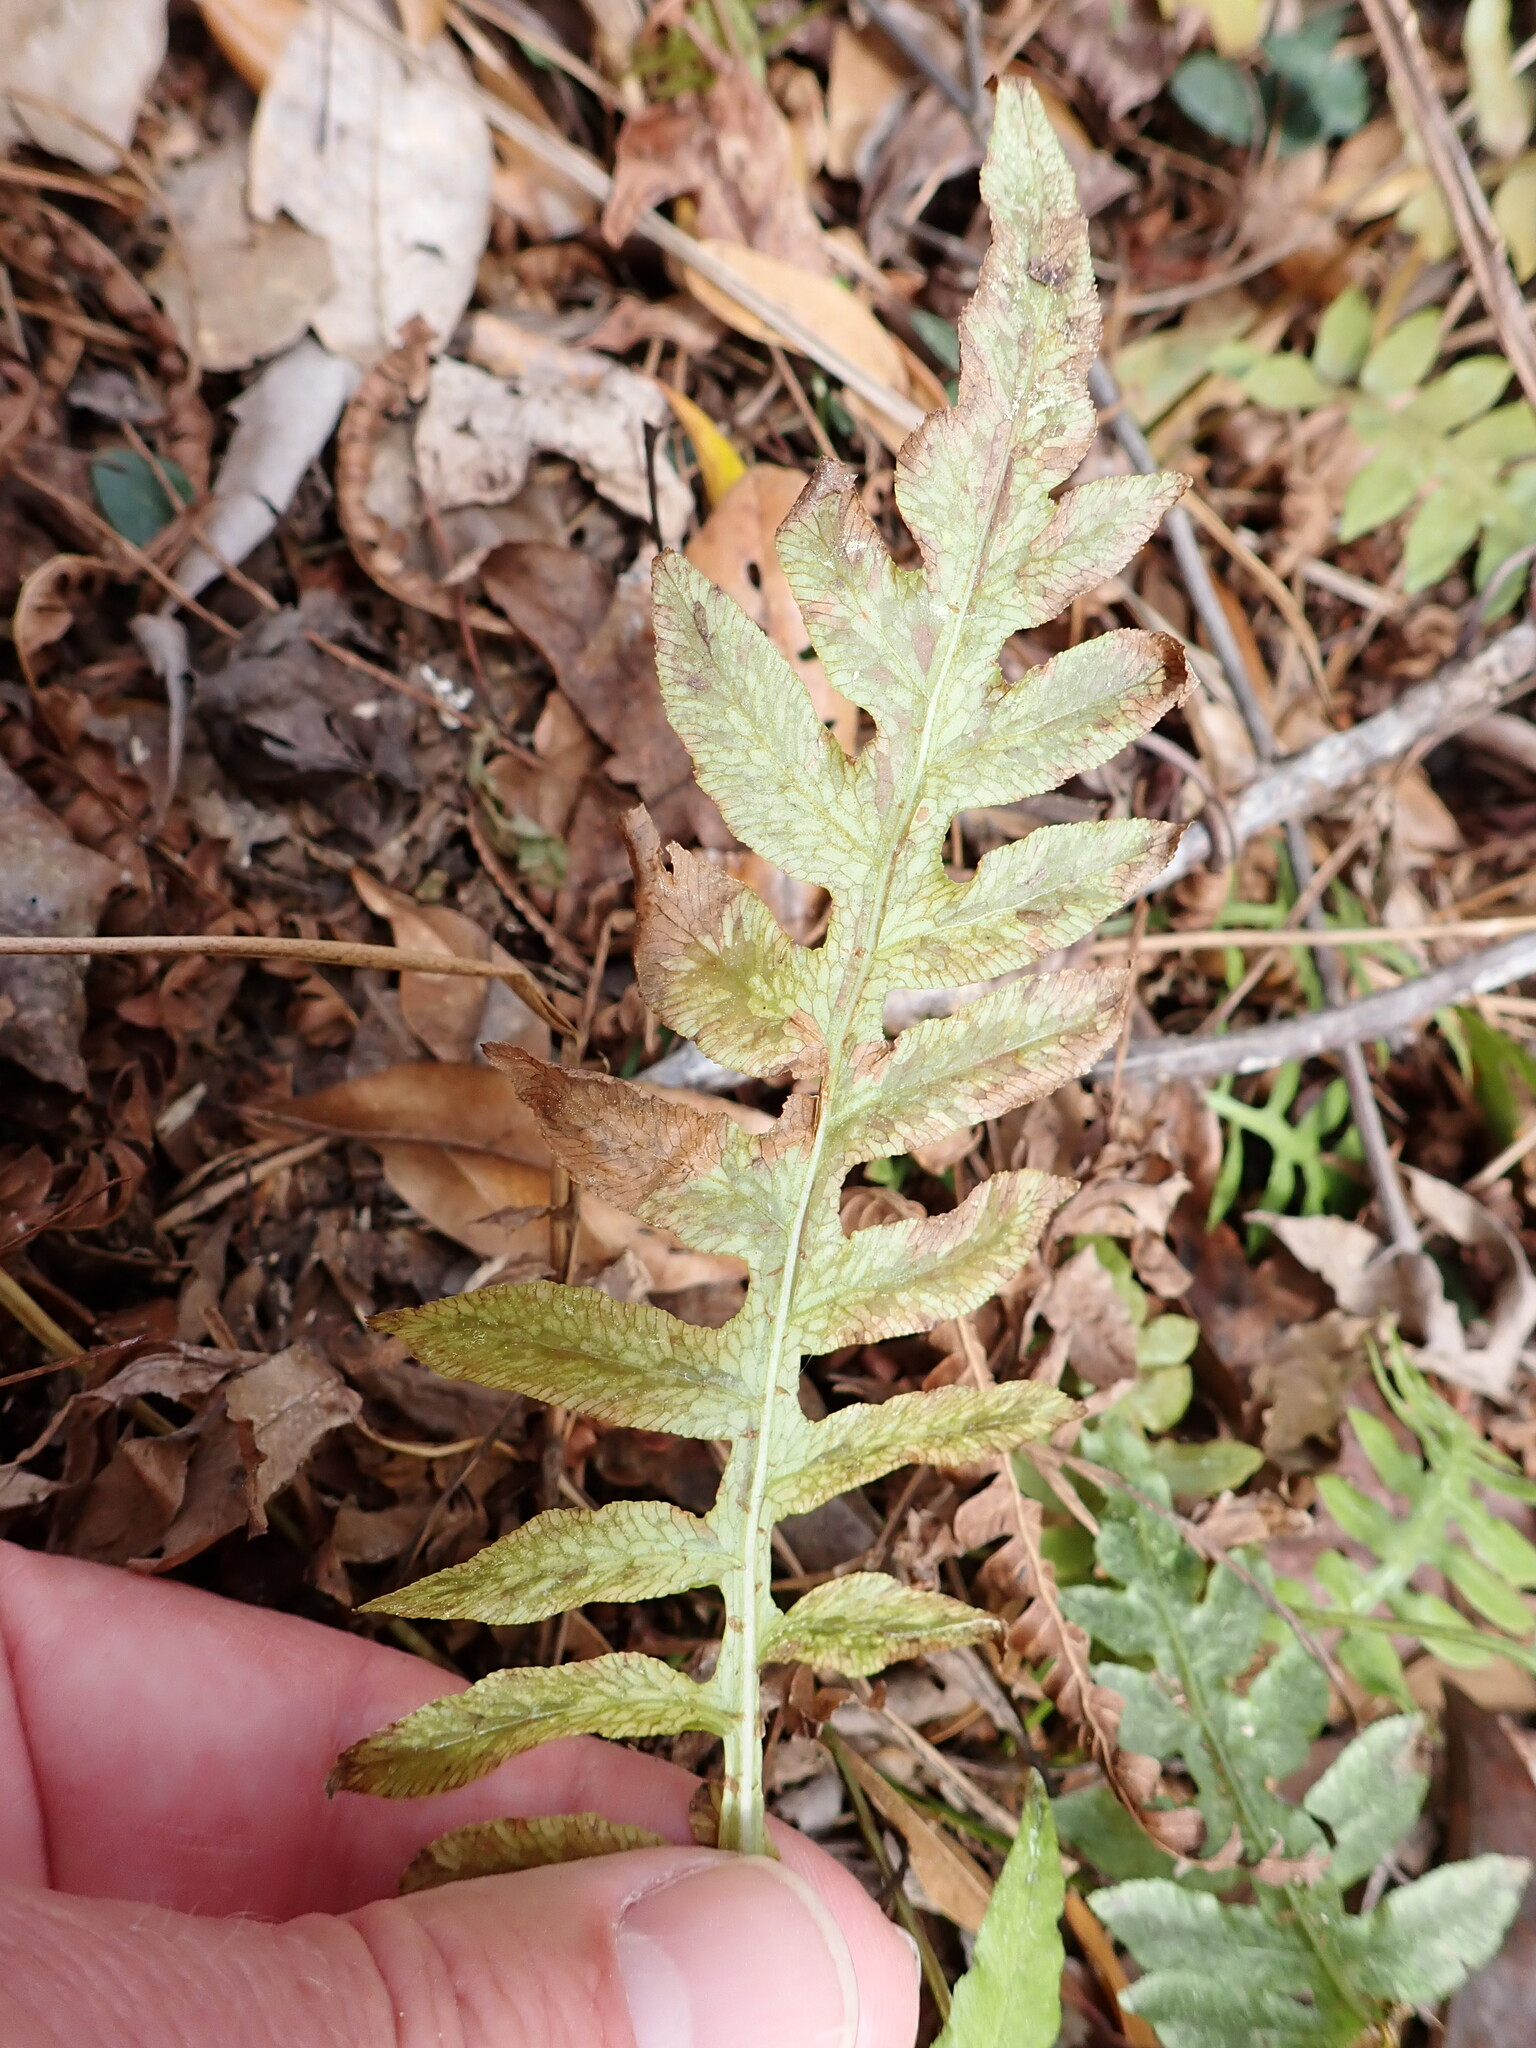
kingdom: Plantae
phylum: Tracheophyta
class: Polypodiopsida
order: Polypodiales
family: Blechnaceae
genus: Lorinseria
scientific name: Lorinseria areolata
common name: Dwarf chain fern
